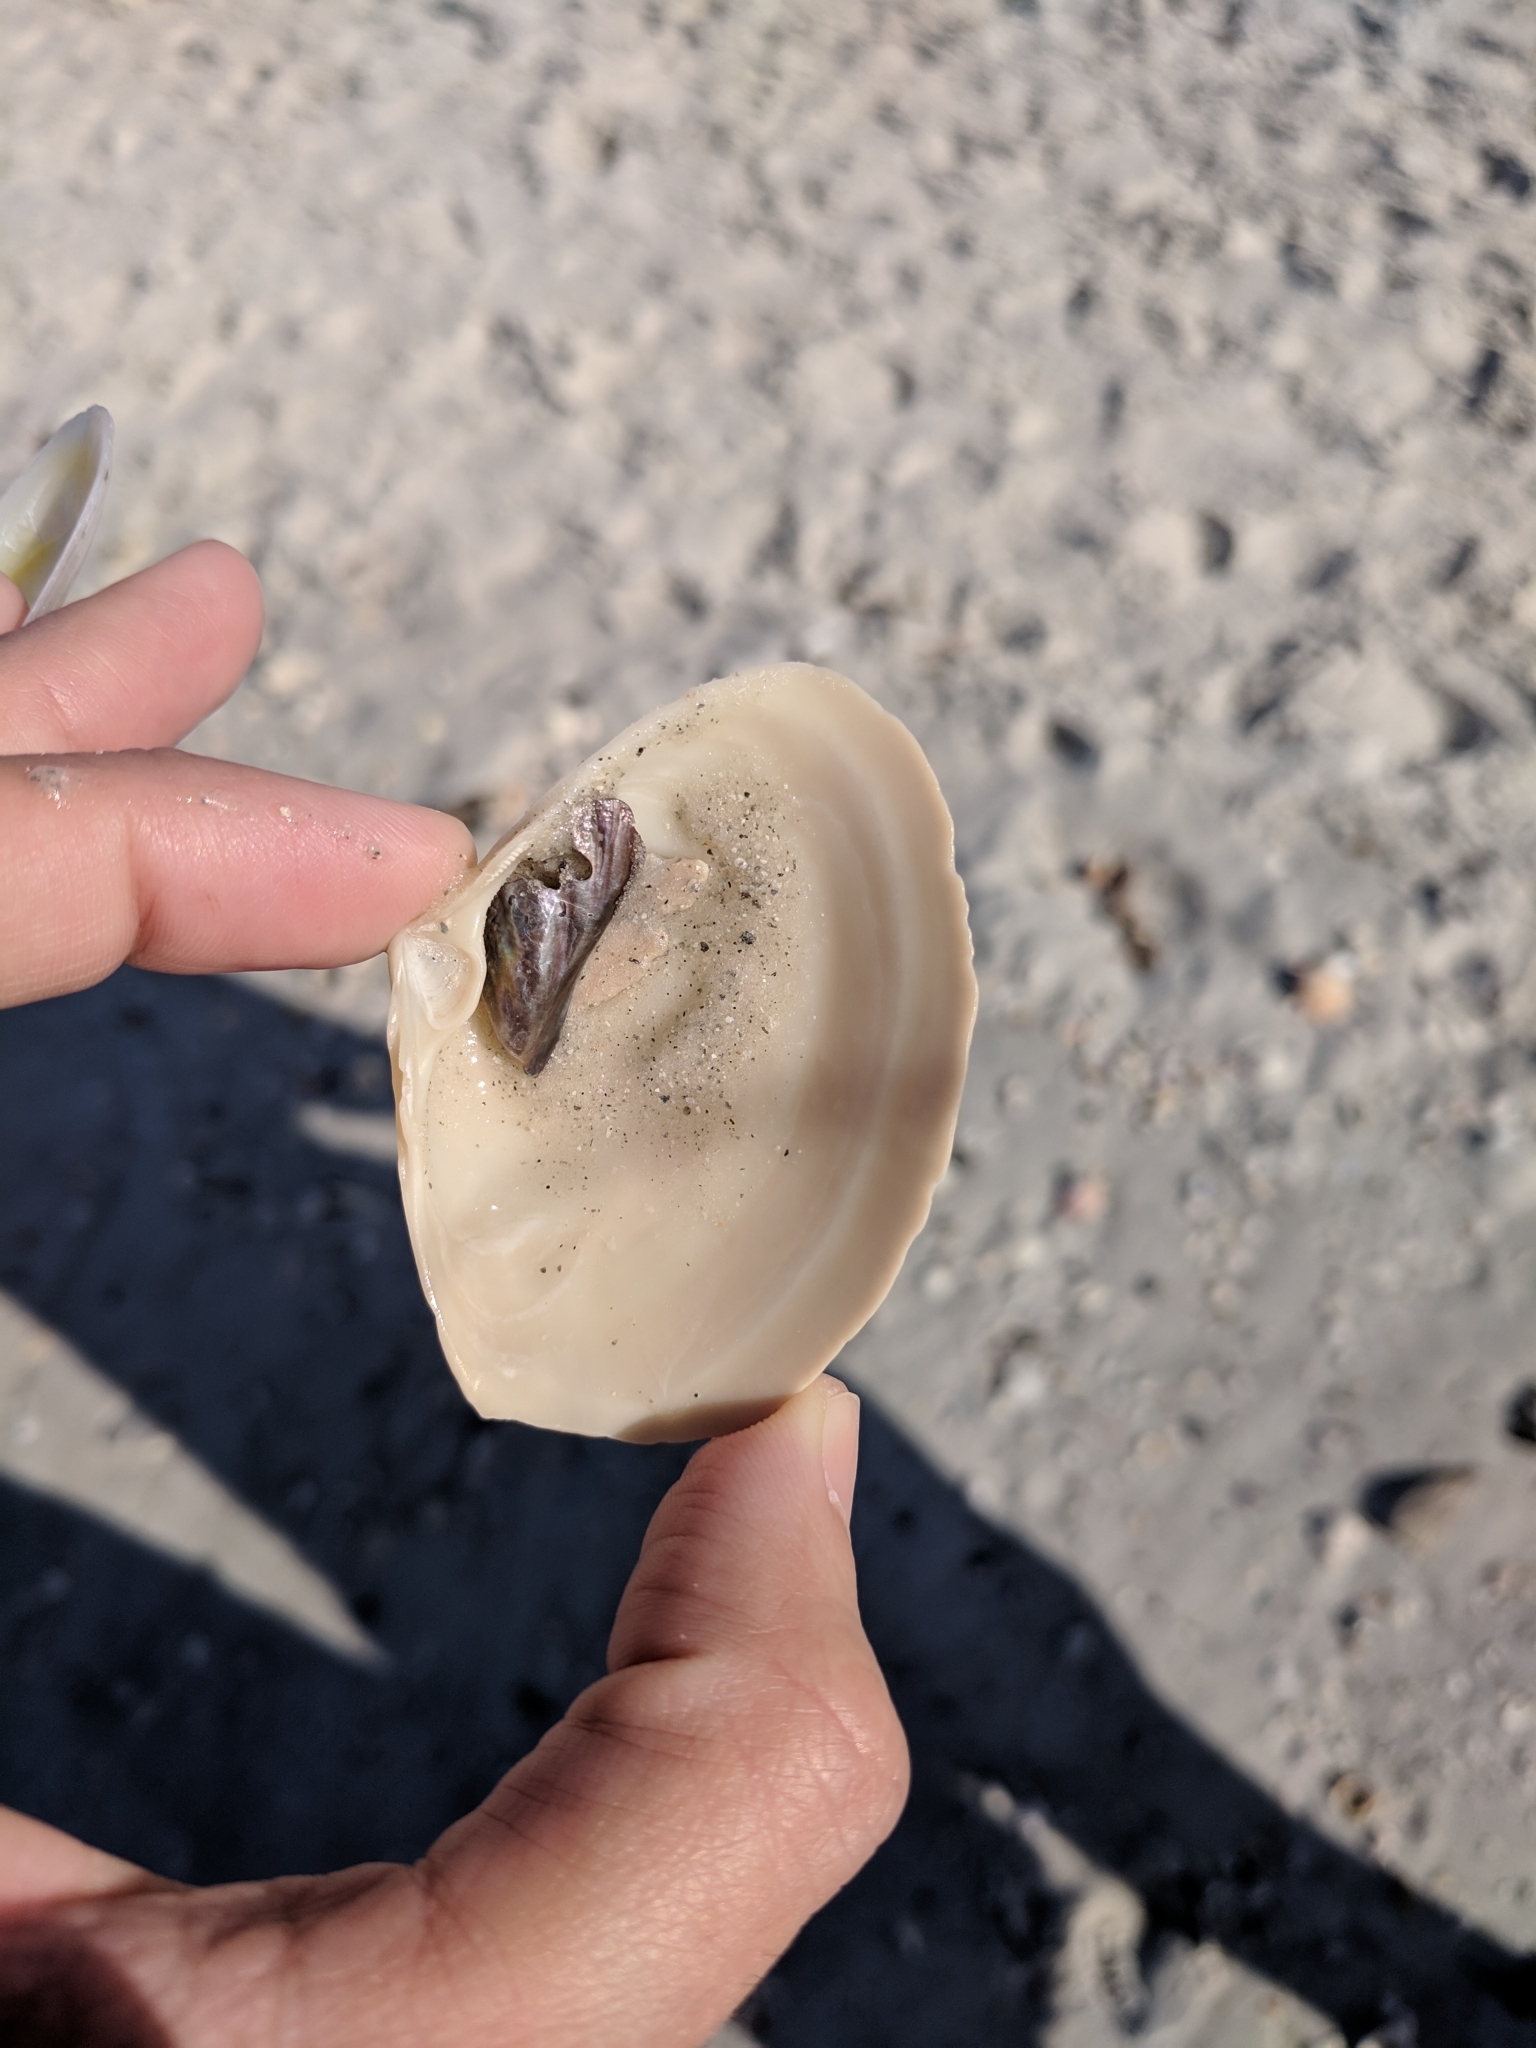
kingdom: Animalia
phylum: Mollusca
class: Bivalvia
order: Venerida
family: Mactridae
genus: Spisula
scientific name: Spisula raveneli
